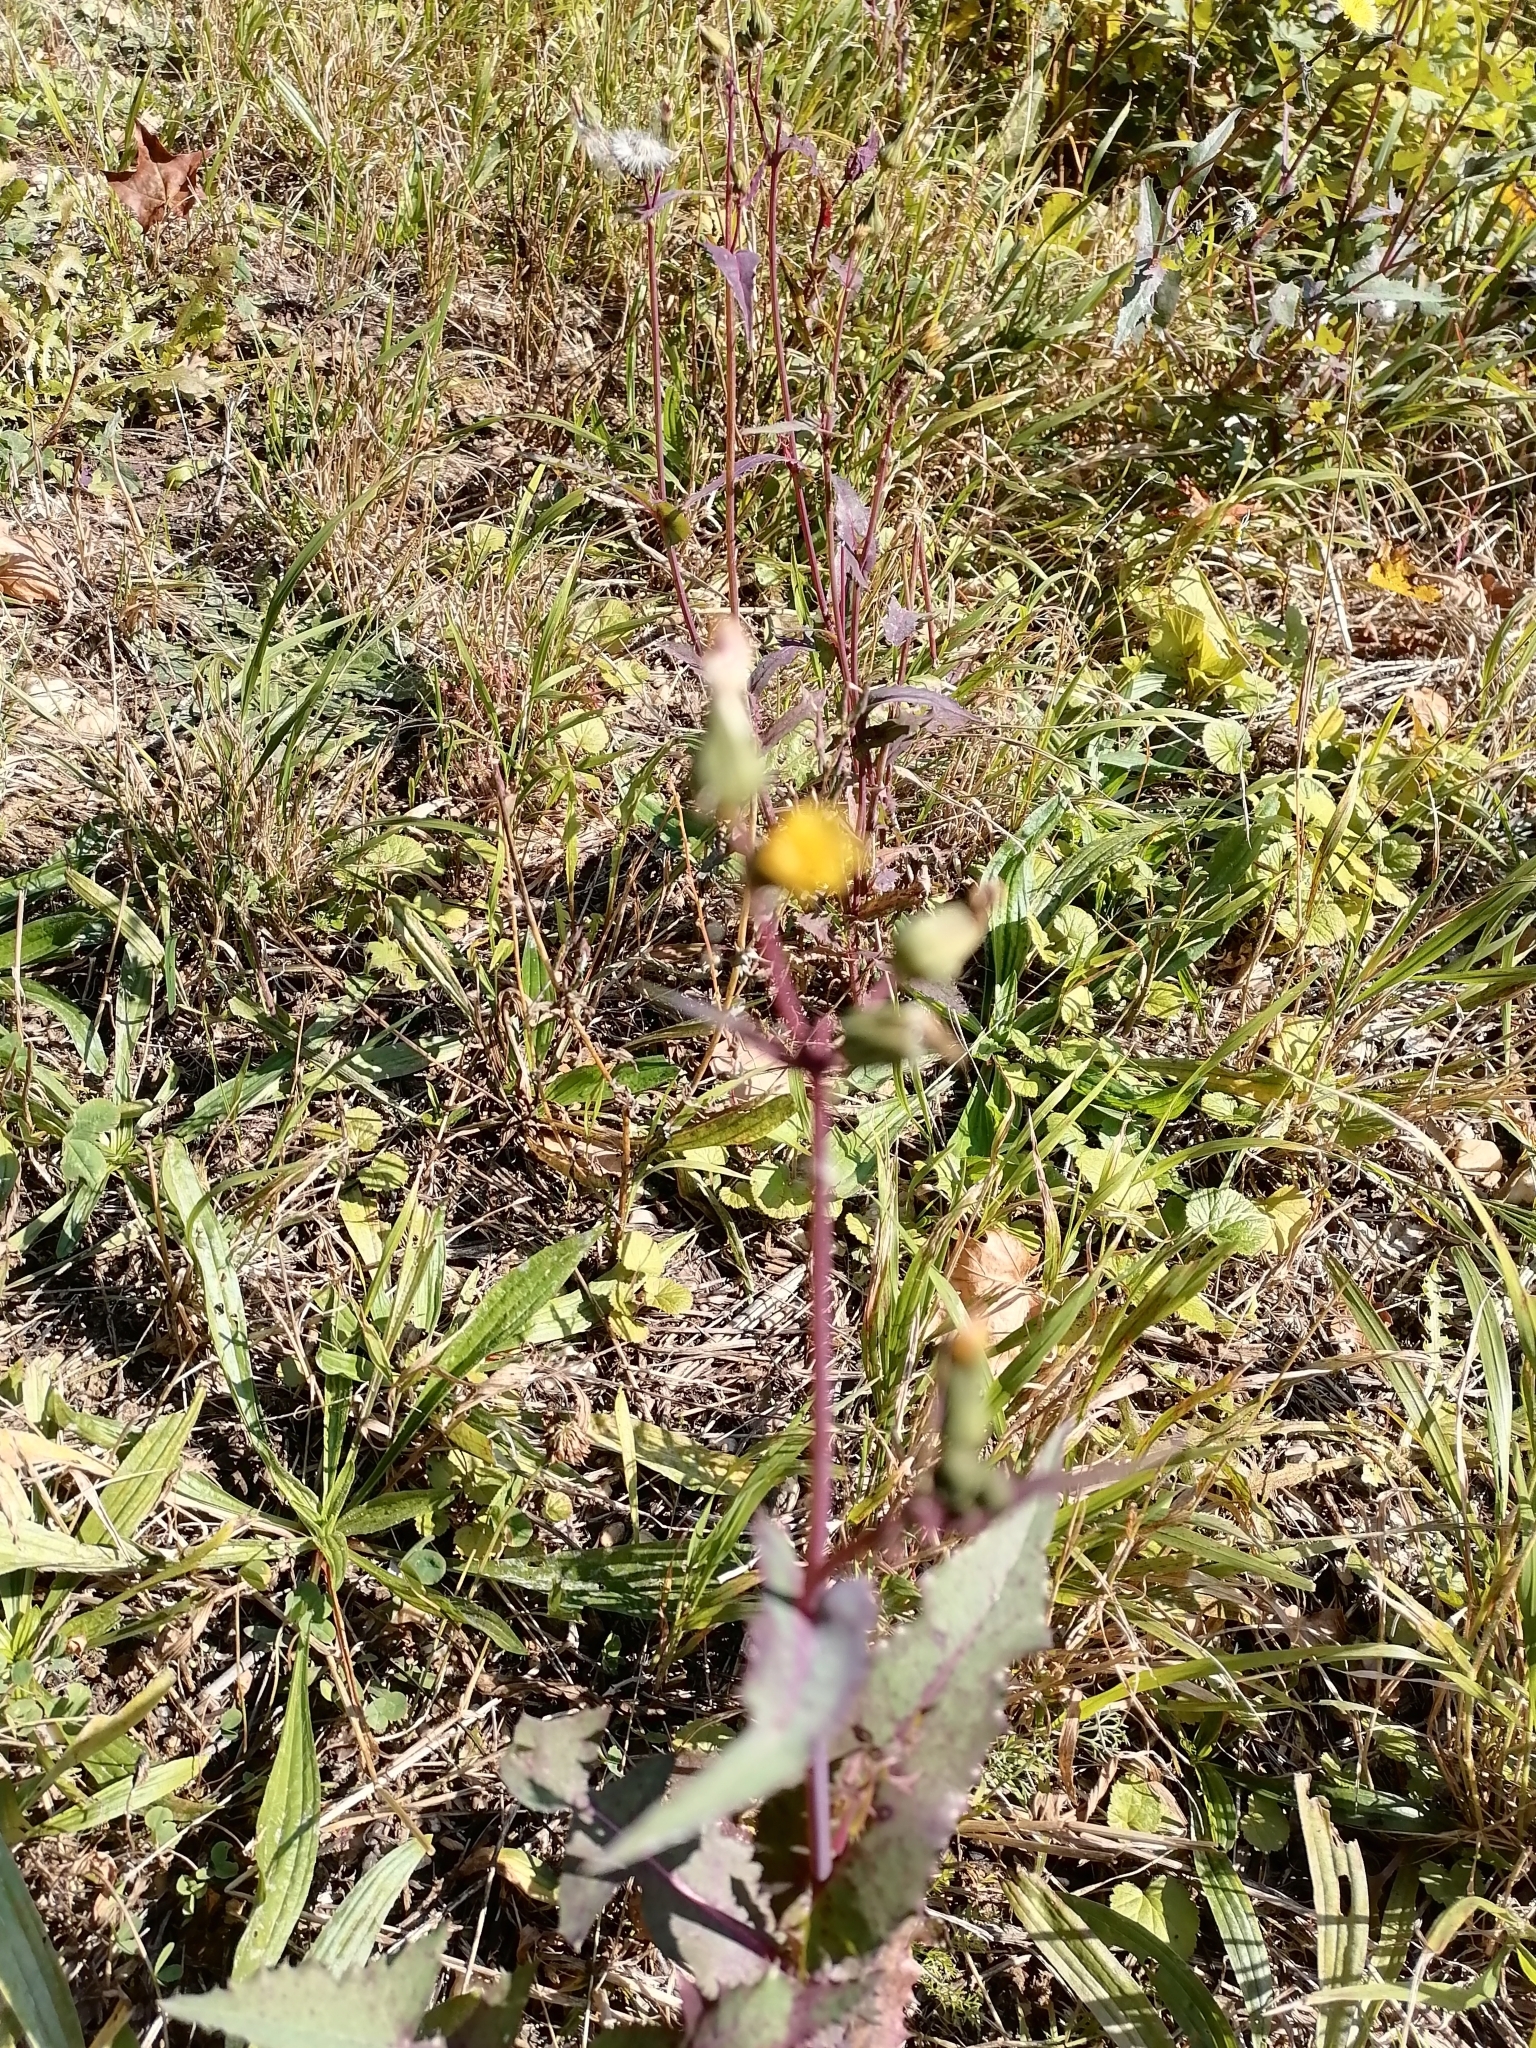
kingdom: Plantae
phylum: Tracheophyta
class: Magnoliopsida
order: Asterales
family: Asteraceae
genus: Sonchus
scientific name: Sonchus oleraceus
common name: Common sowthistle
